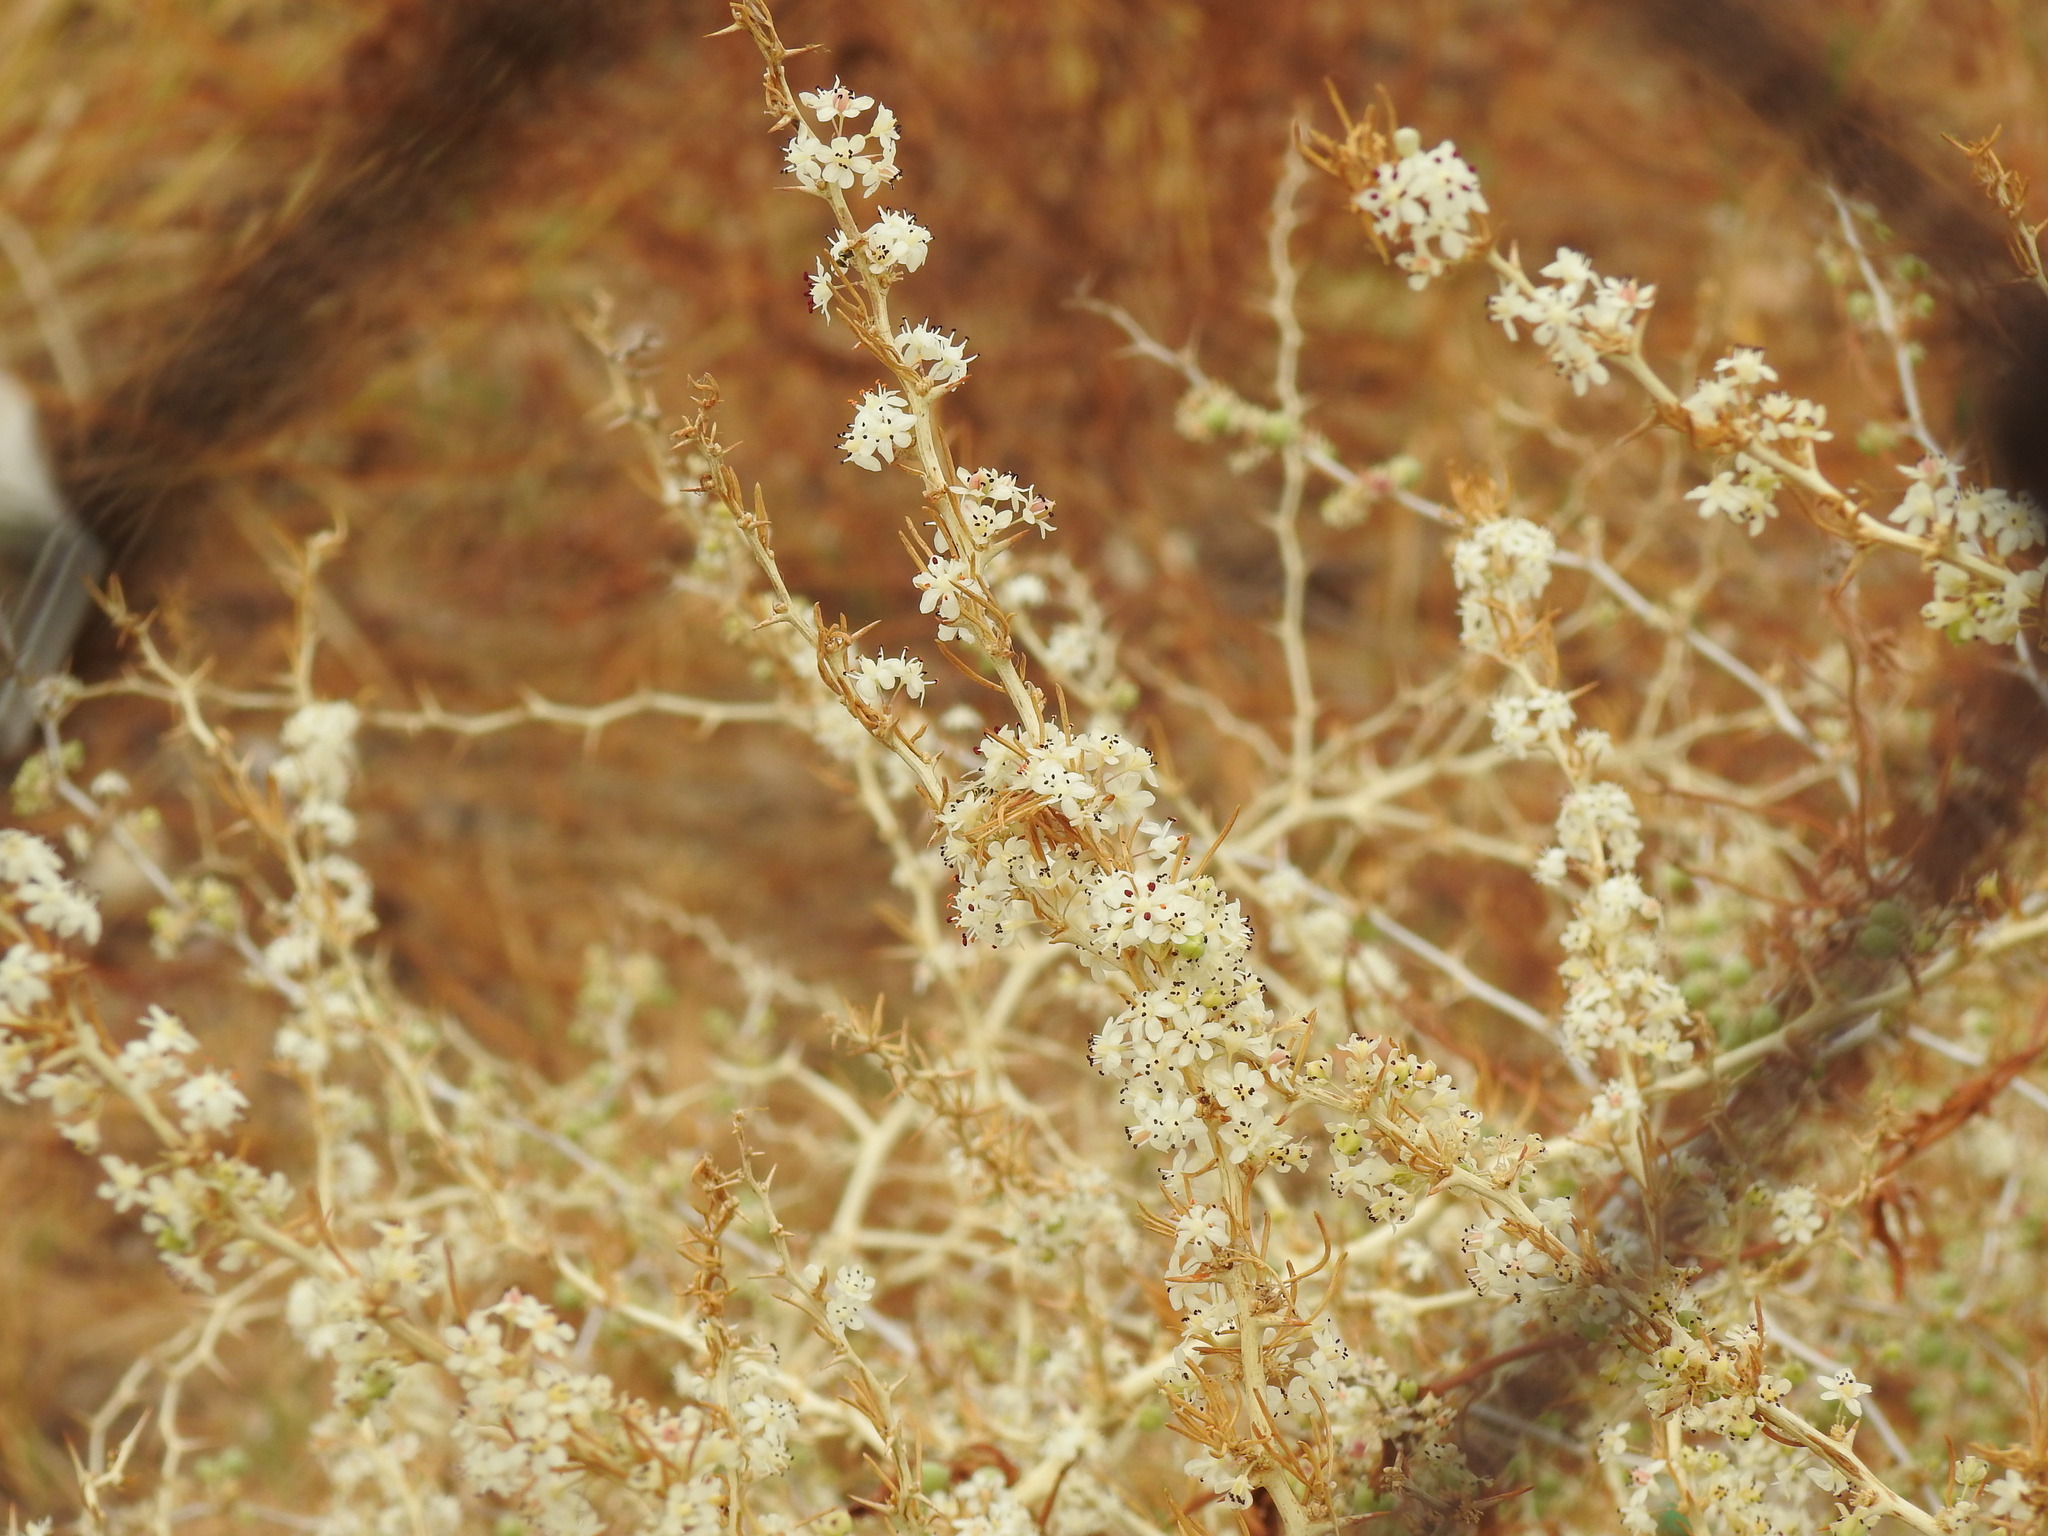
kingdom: Plantae
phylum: Tracheophyta
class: Liliopsida
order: Asparagales
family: Asparagaceae
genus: Asparagus
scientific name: Asparagus albus
